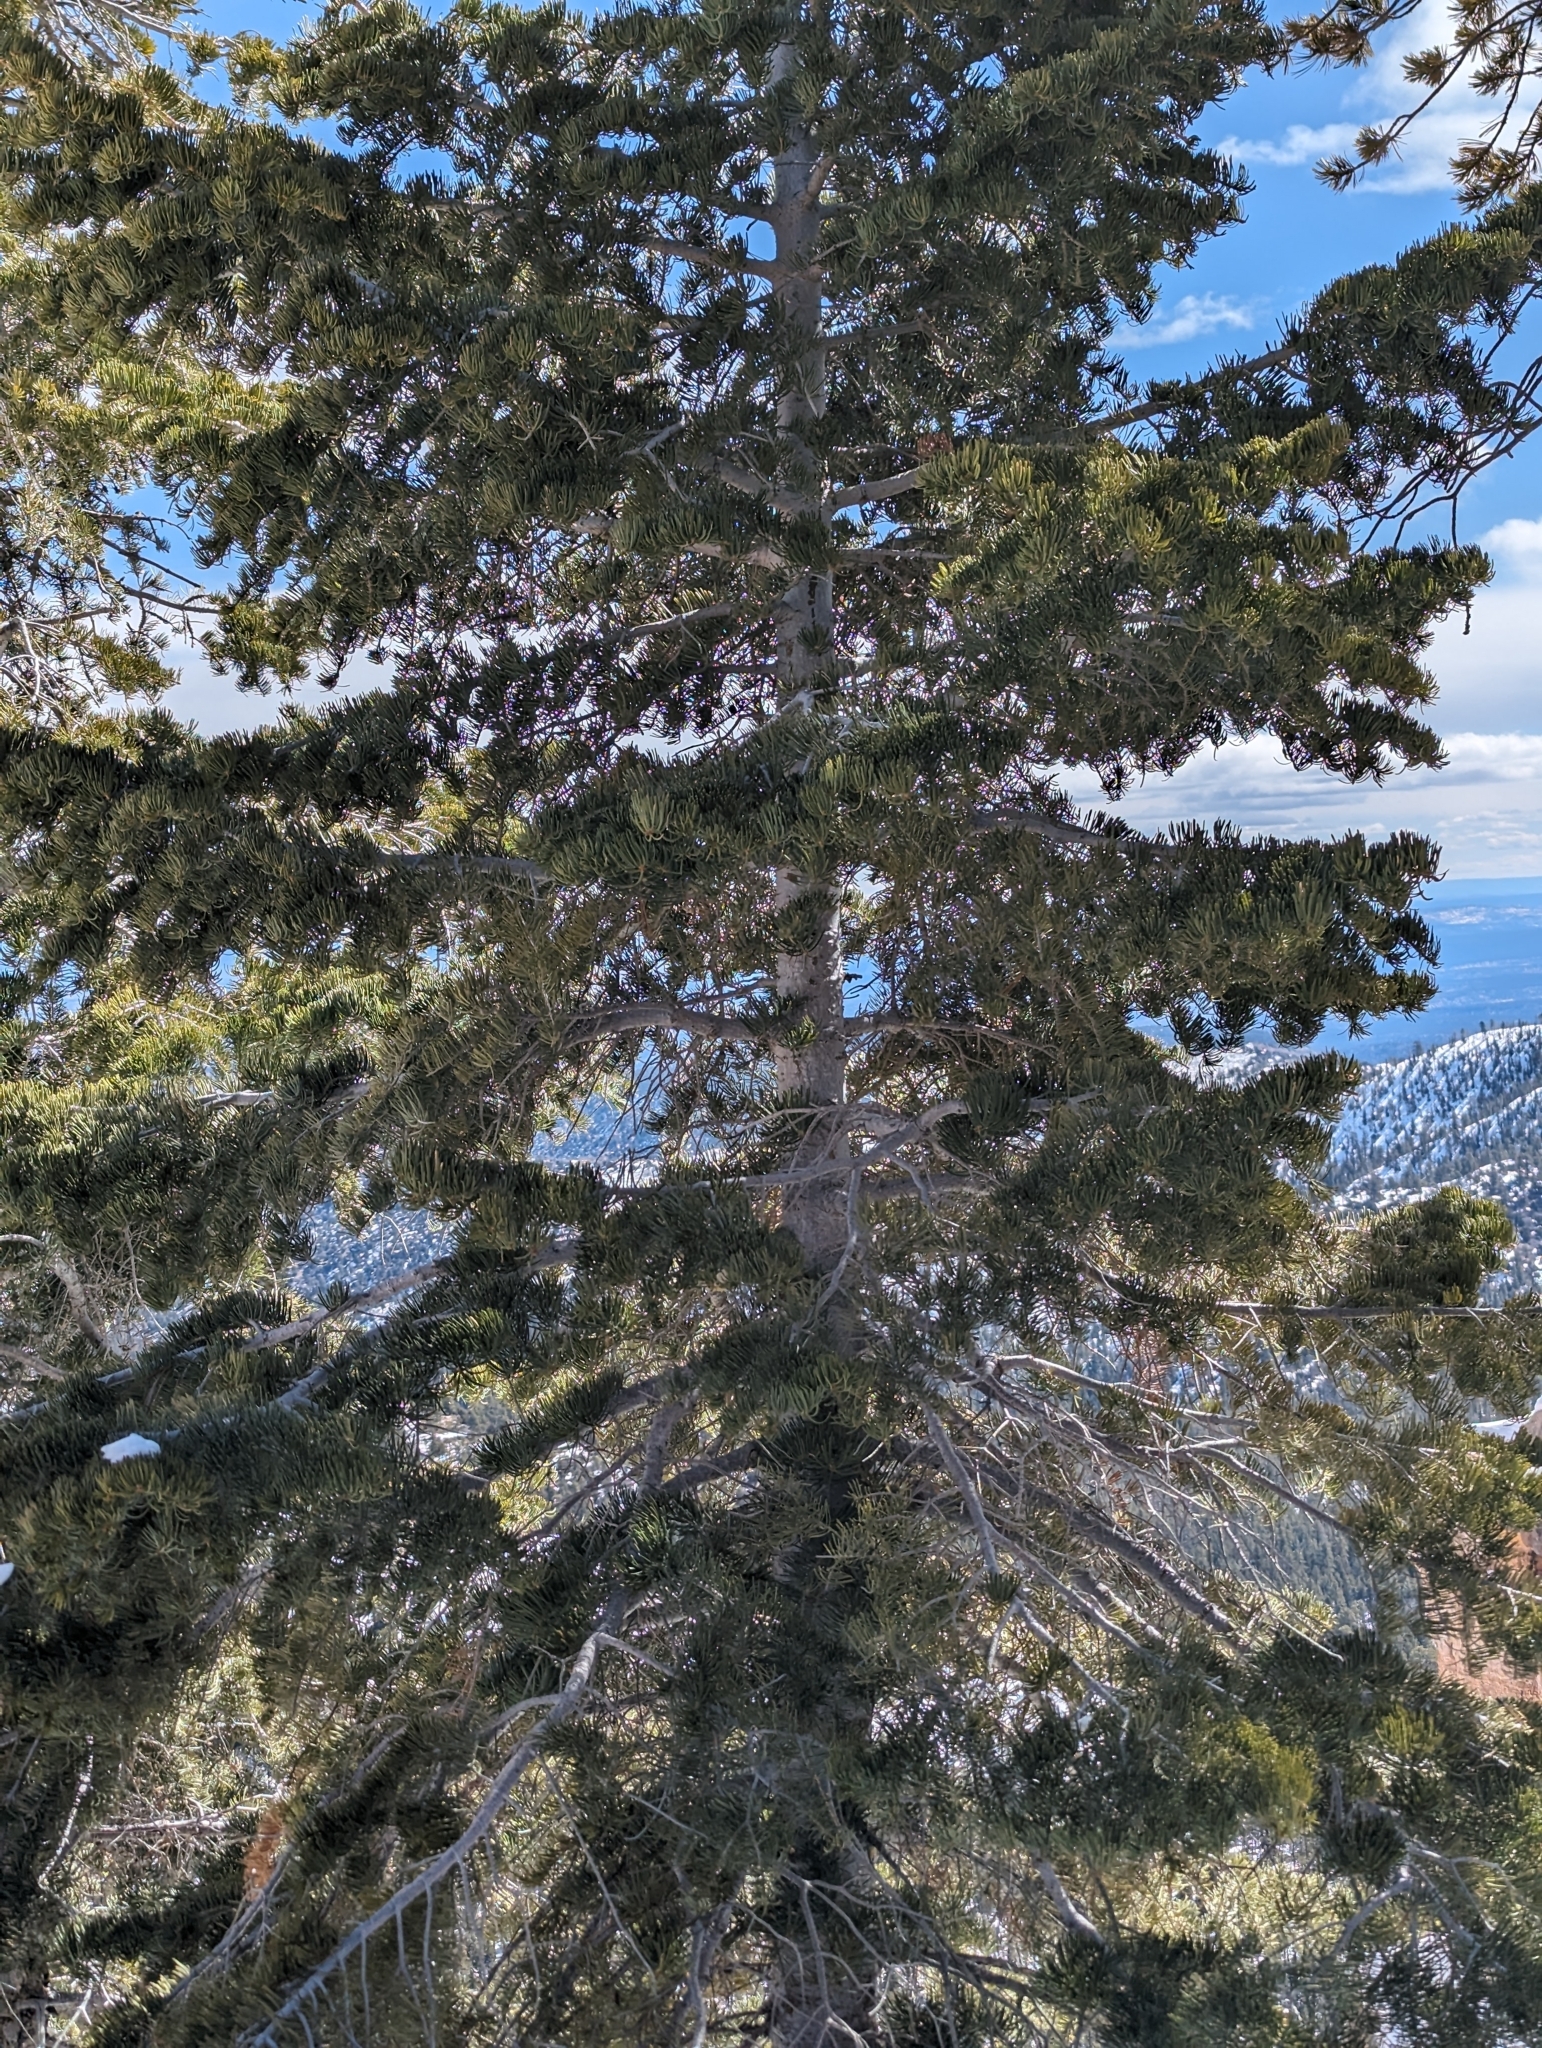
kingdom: Plantae
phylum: Tracheophyta
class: Pinopsida
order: Pinales
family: Pinaceae
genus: Abies
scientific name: Abies concolor
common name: Colorado fir
